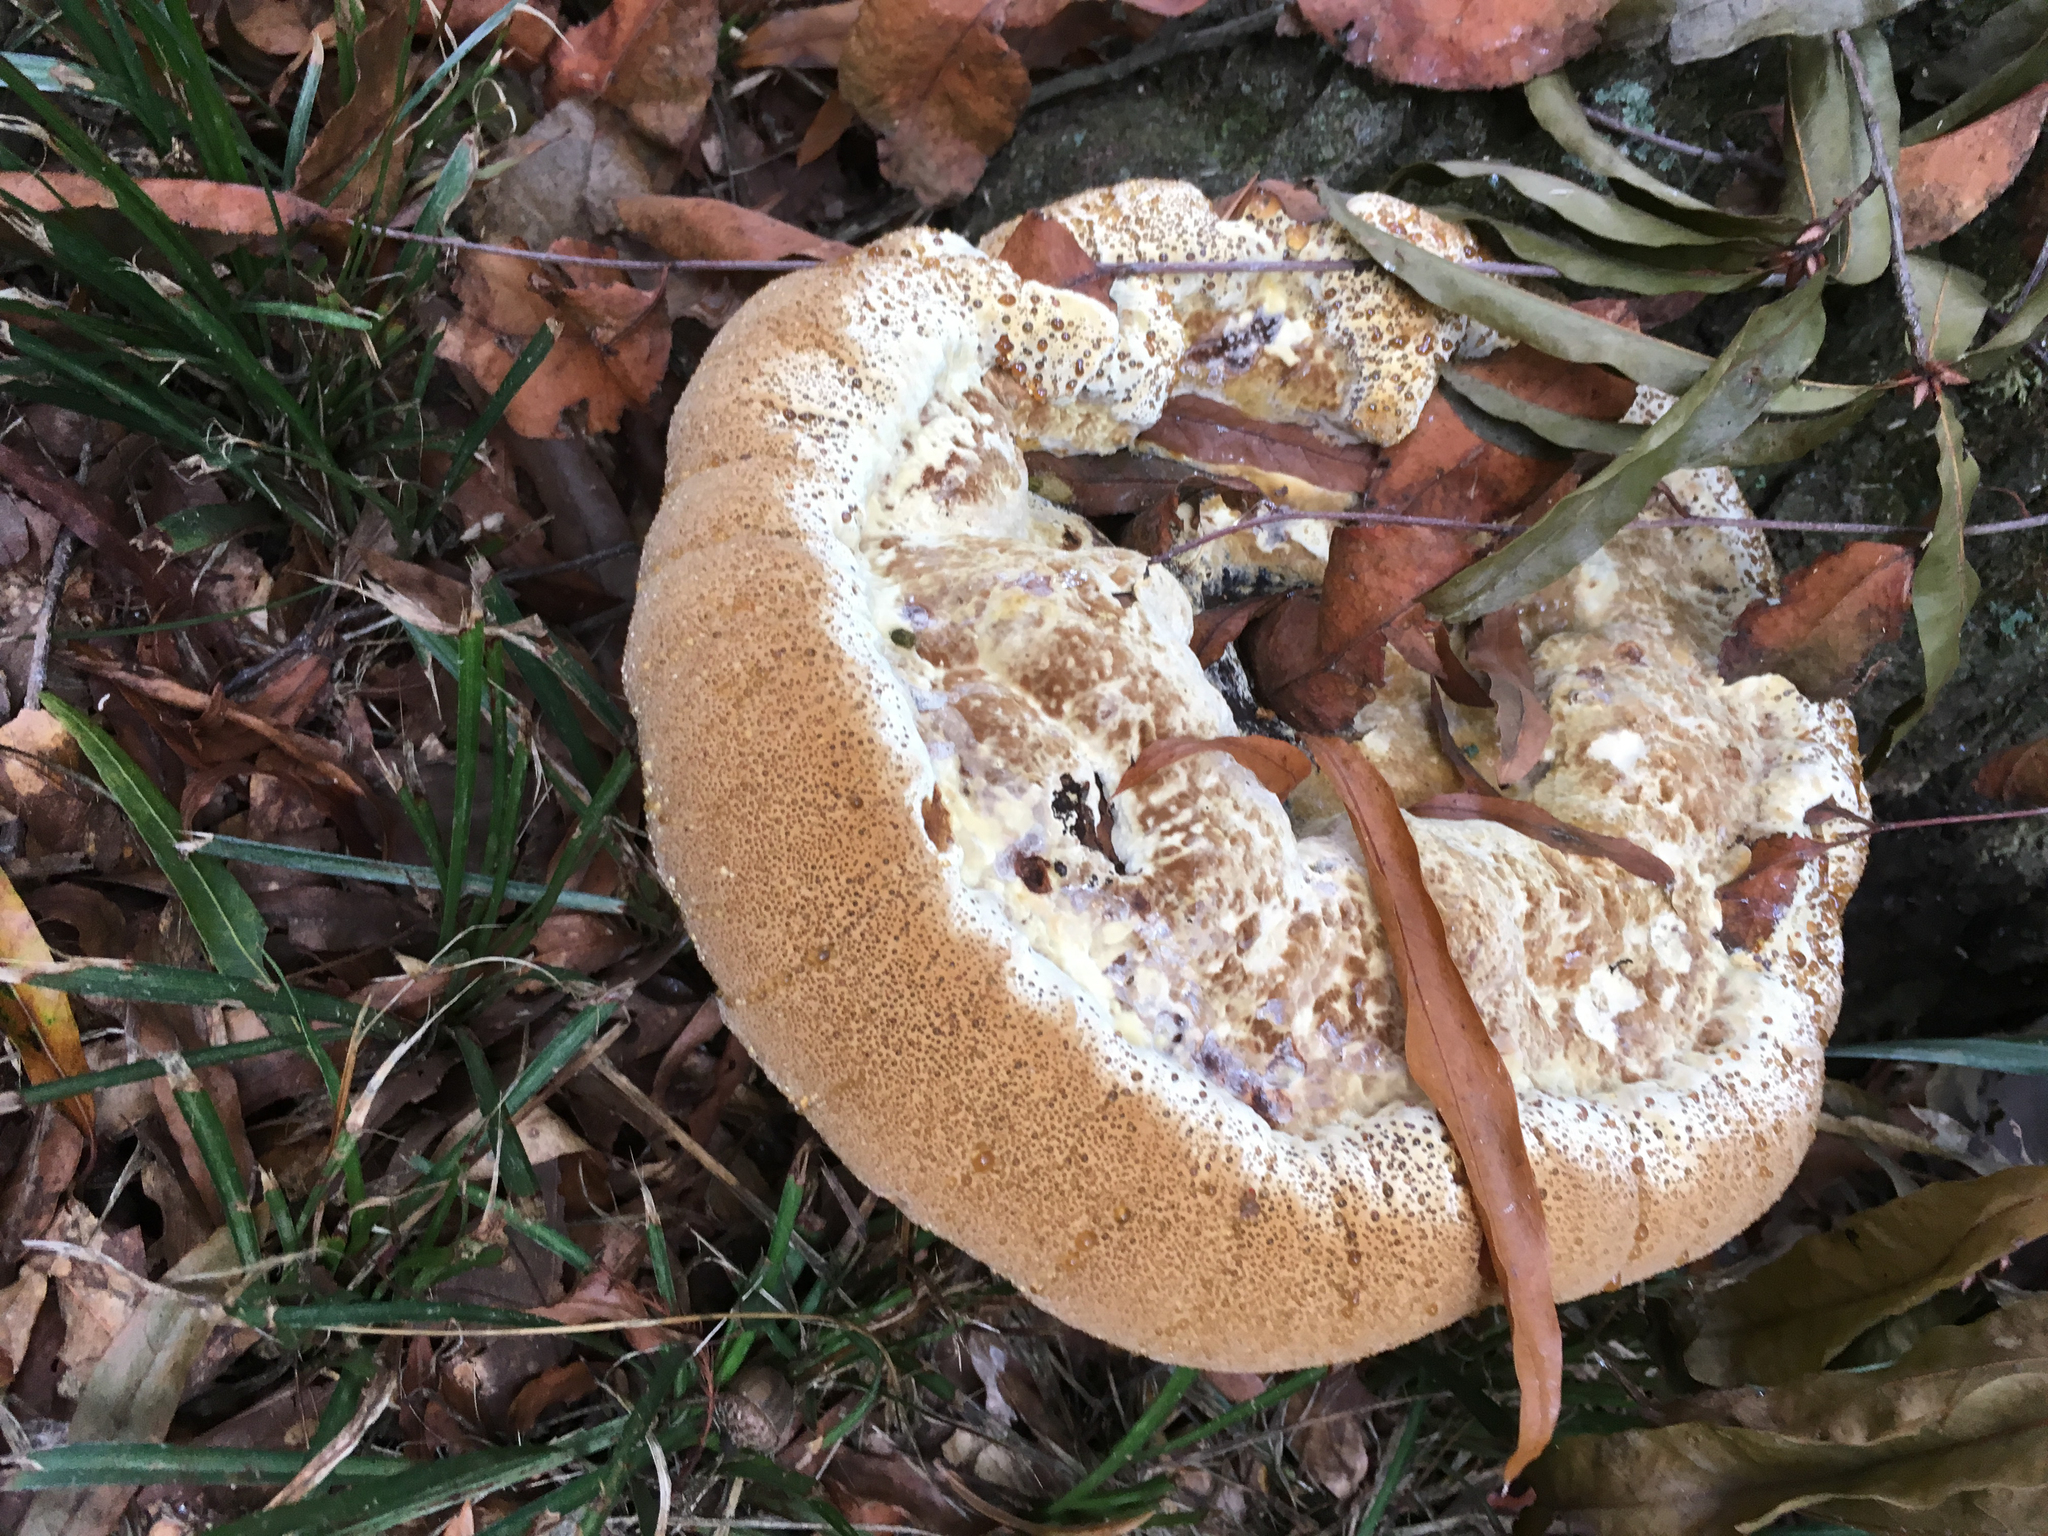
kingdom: Fungi
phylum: Basidiomycota
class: Agaricomycetes
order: Hymenochaetales
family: Hymenochaetaceae
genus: Pseudoinonotus
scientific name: Pseudoinonotus dryadeus
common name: Oak bracket
